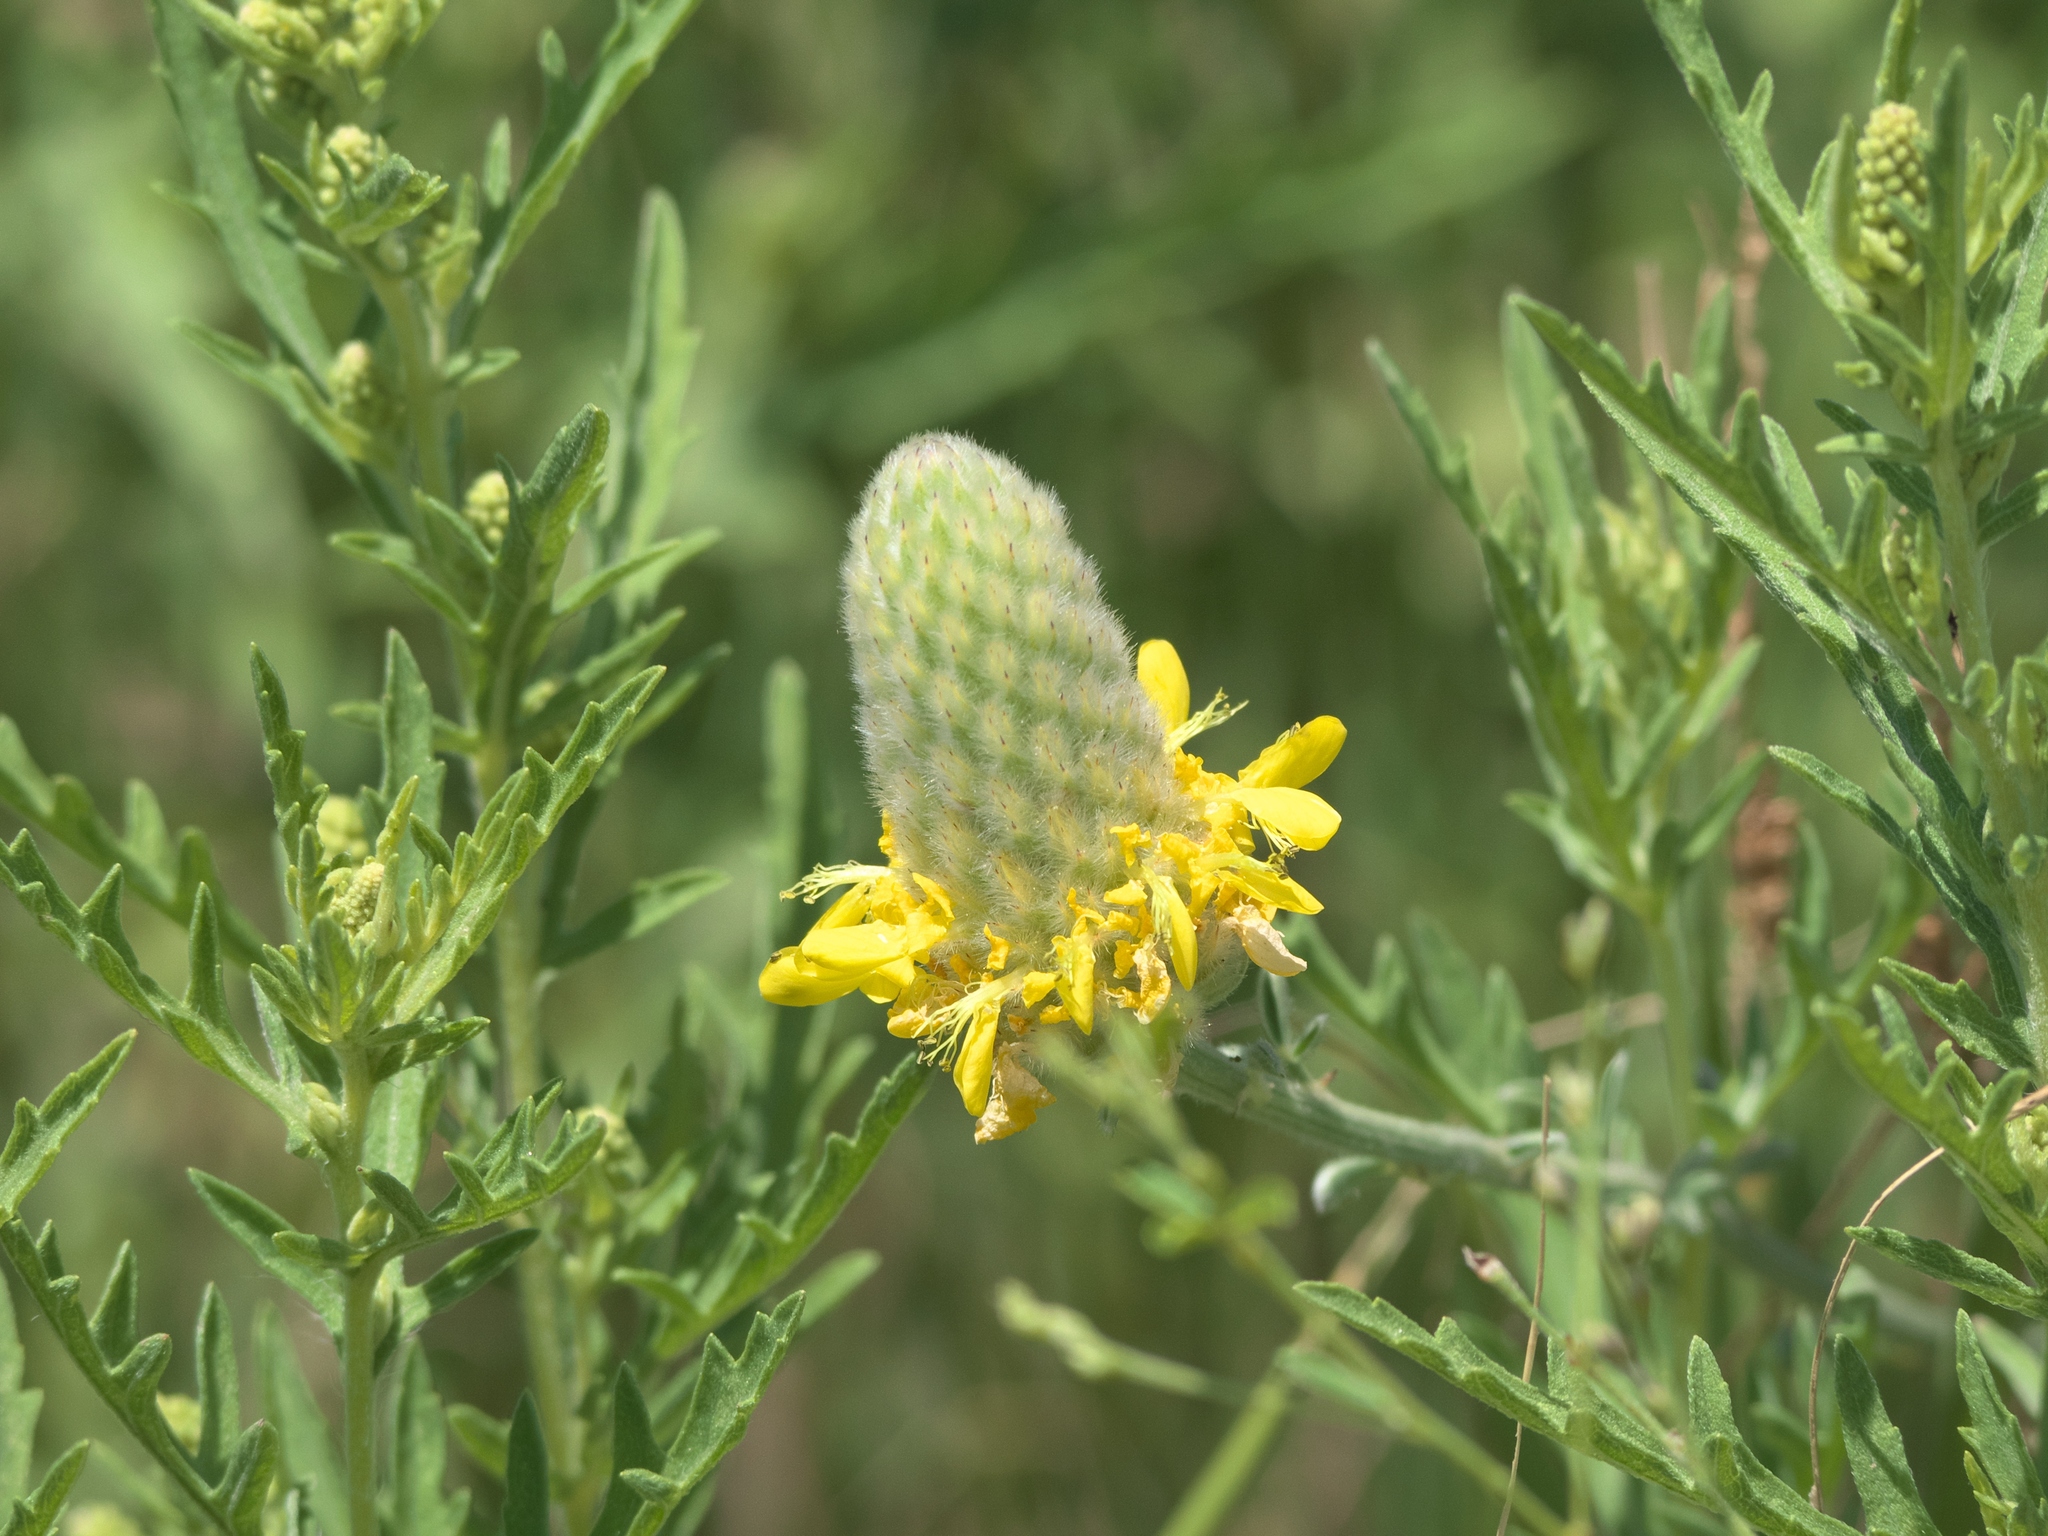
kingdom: Plantae
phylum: Tracheophyta
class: Magnoliopsida
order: Fabales
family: Fabaceae
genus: Dalea
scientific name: Dalea aurea
